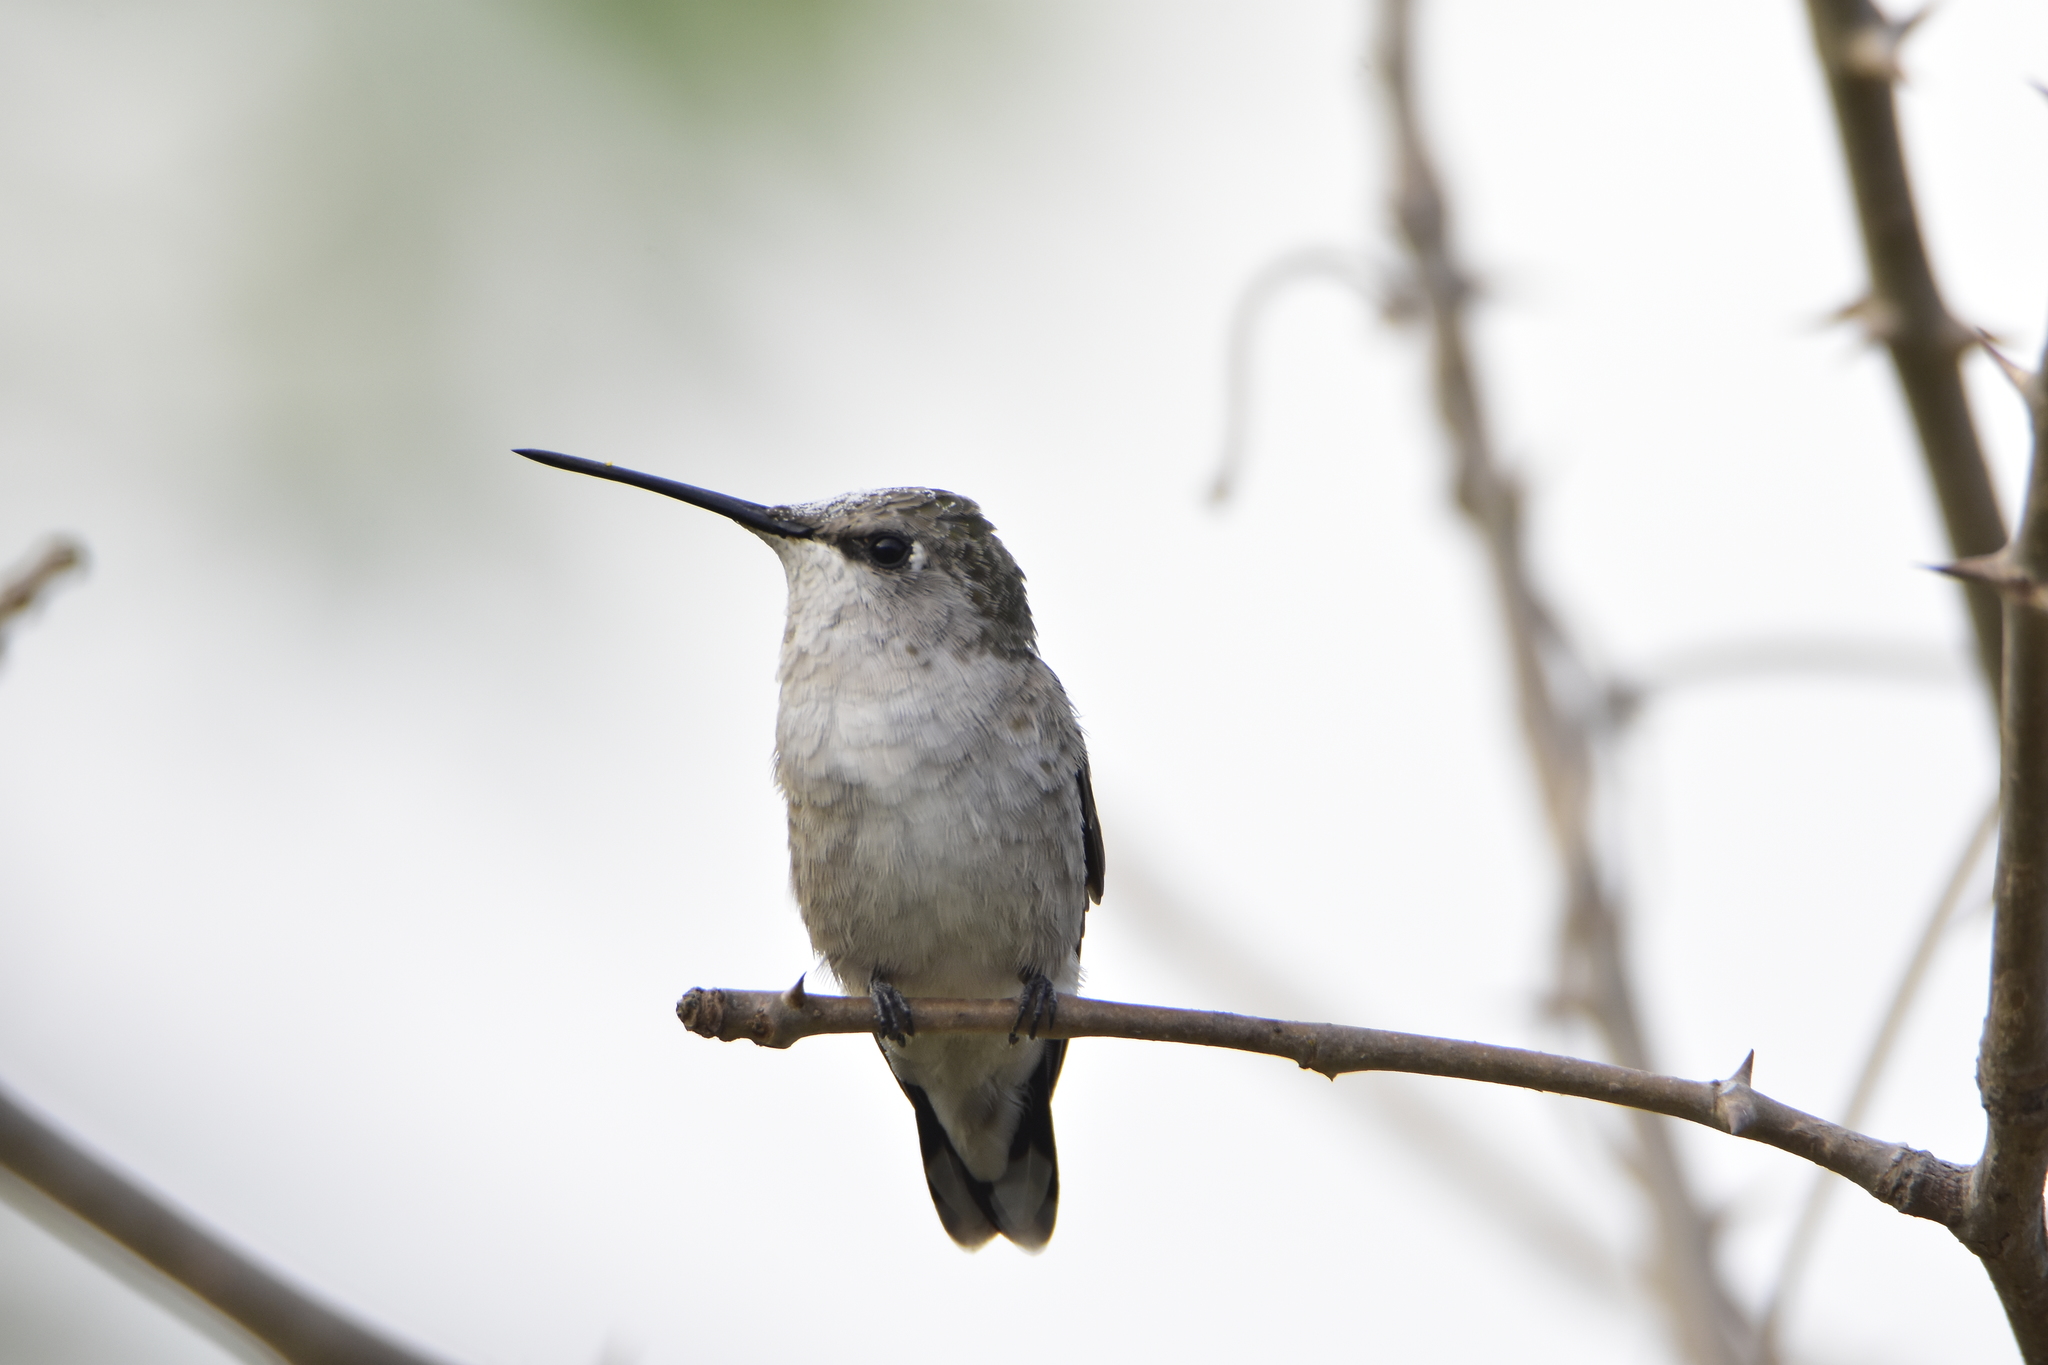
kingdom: Animalia
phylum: Chordata
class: Aves
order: Apodiformes
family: Trochilidae
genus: Archilochus
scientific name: Archilochus alexandri
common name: Black-chinned hummingbird
